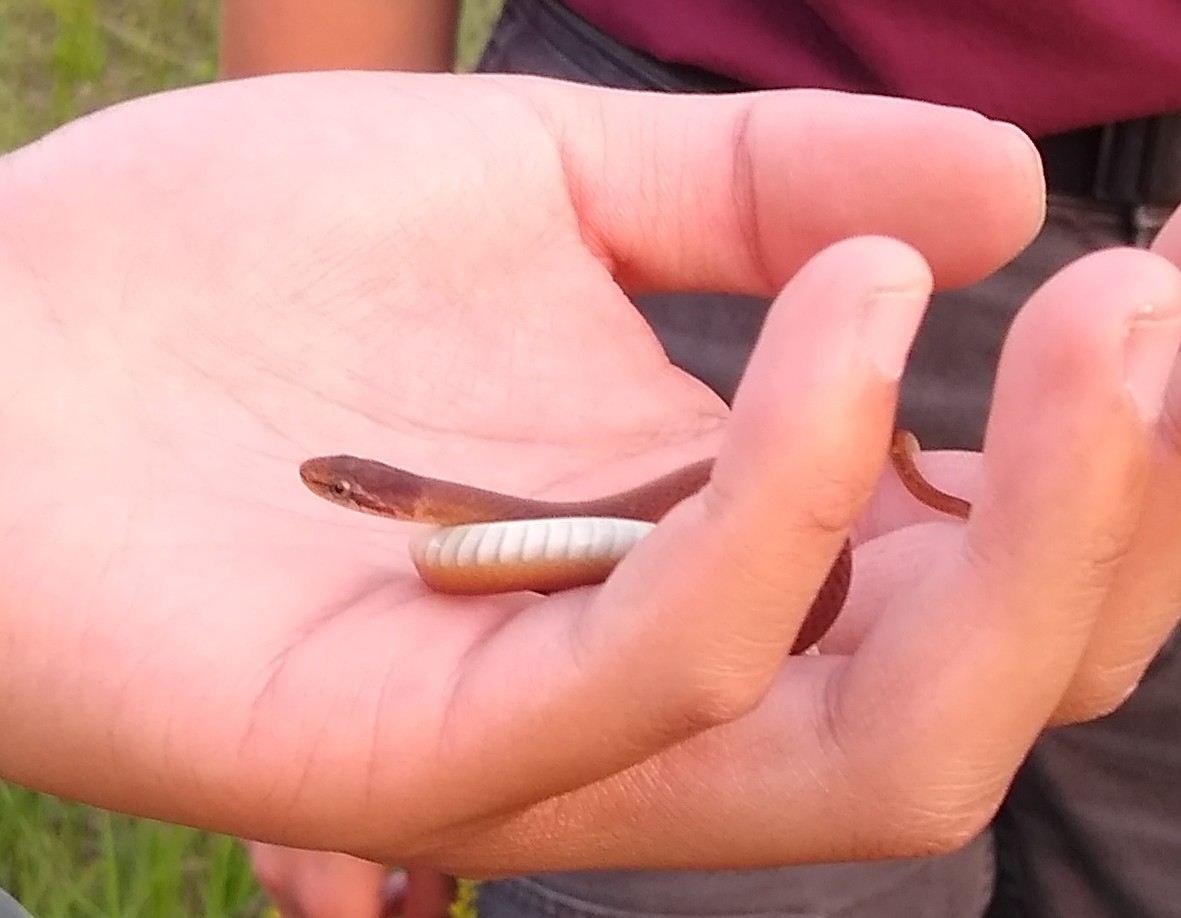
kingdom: Animalia
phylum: Chordata
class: Squamata
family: Colubridae
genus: Rhadinaea
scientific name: Rhadinaea flavilata
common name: Pine woods littersnake
